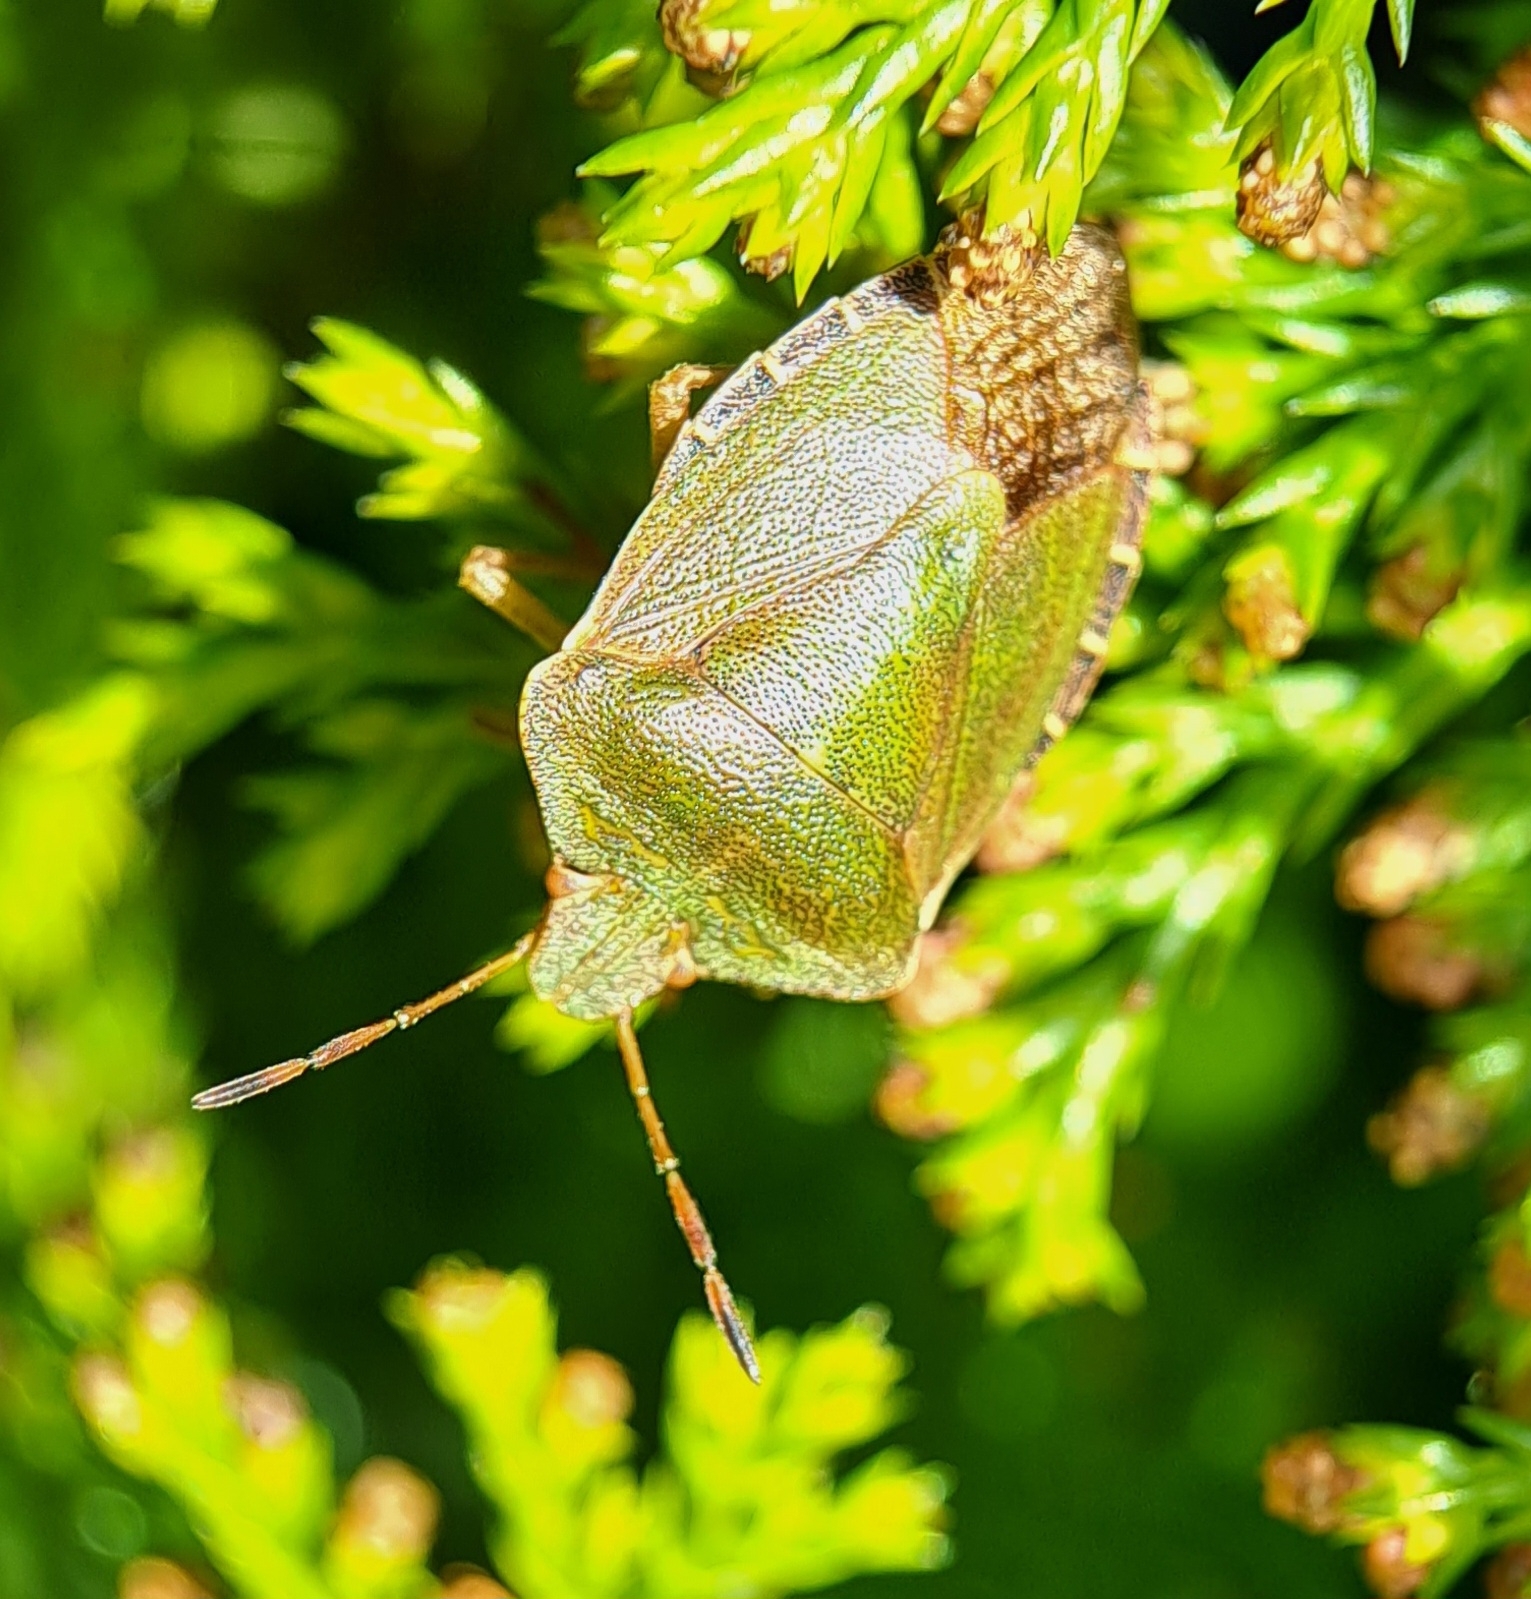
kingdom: Animalia
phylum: Arthropoda
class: Insecta
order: Hemiptera
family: Pentatomidae
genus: Palomena
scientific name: Palomena prasina
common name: Green shieldbug
